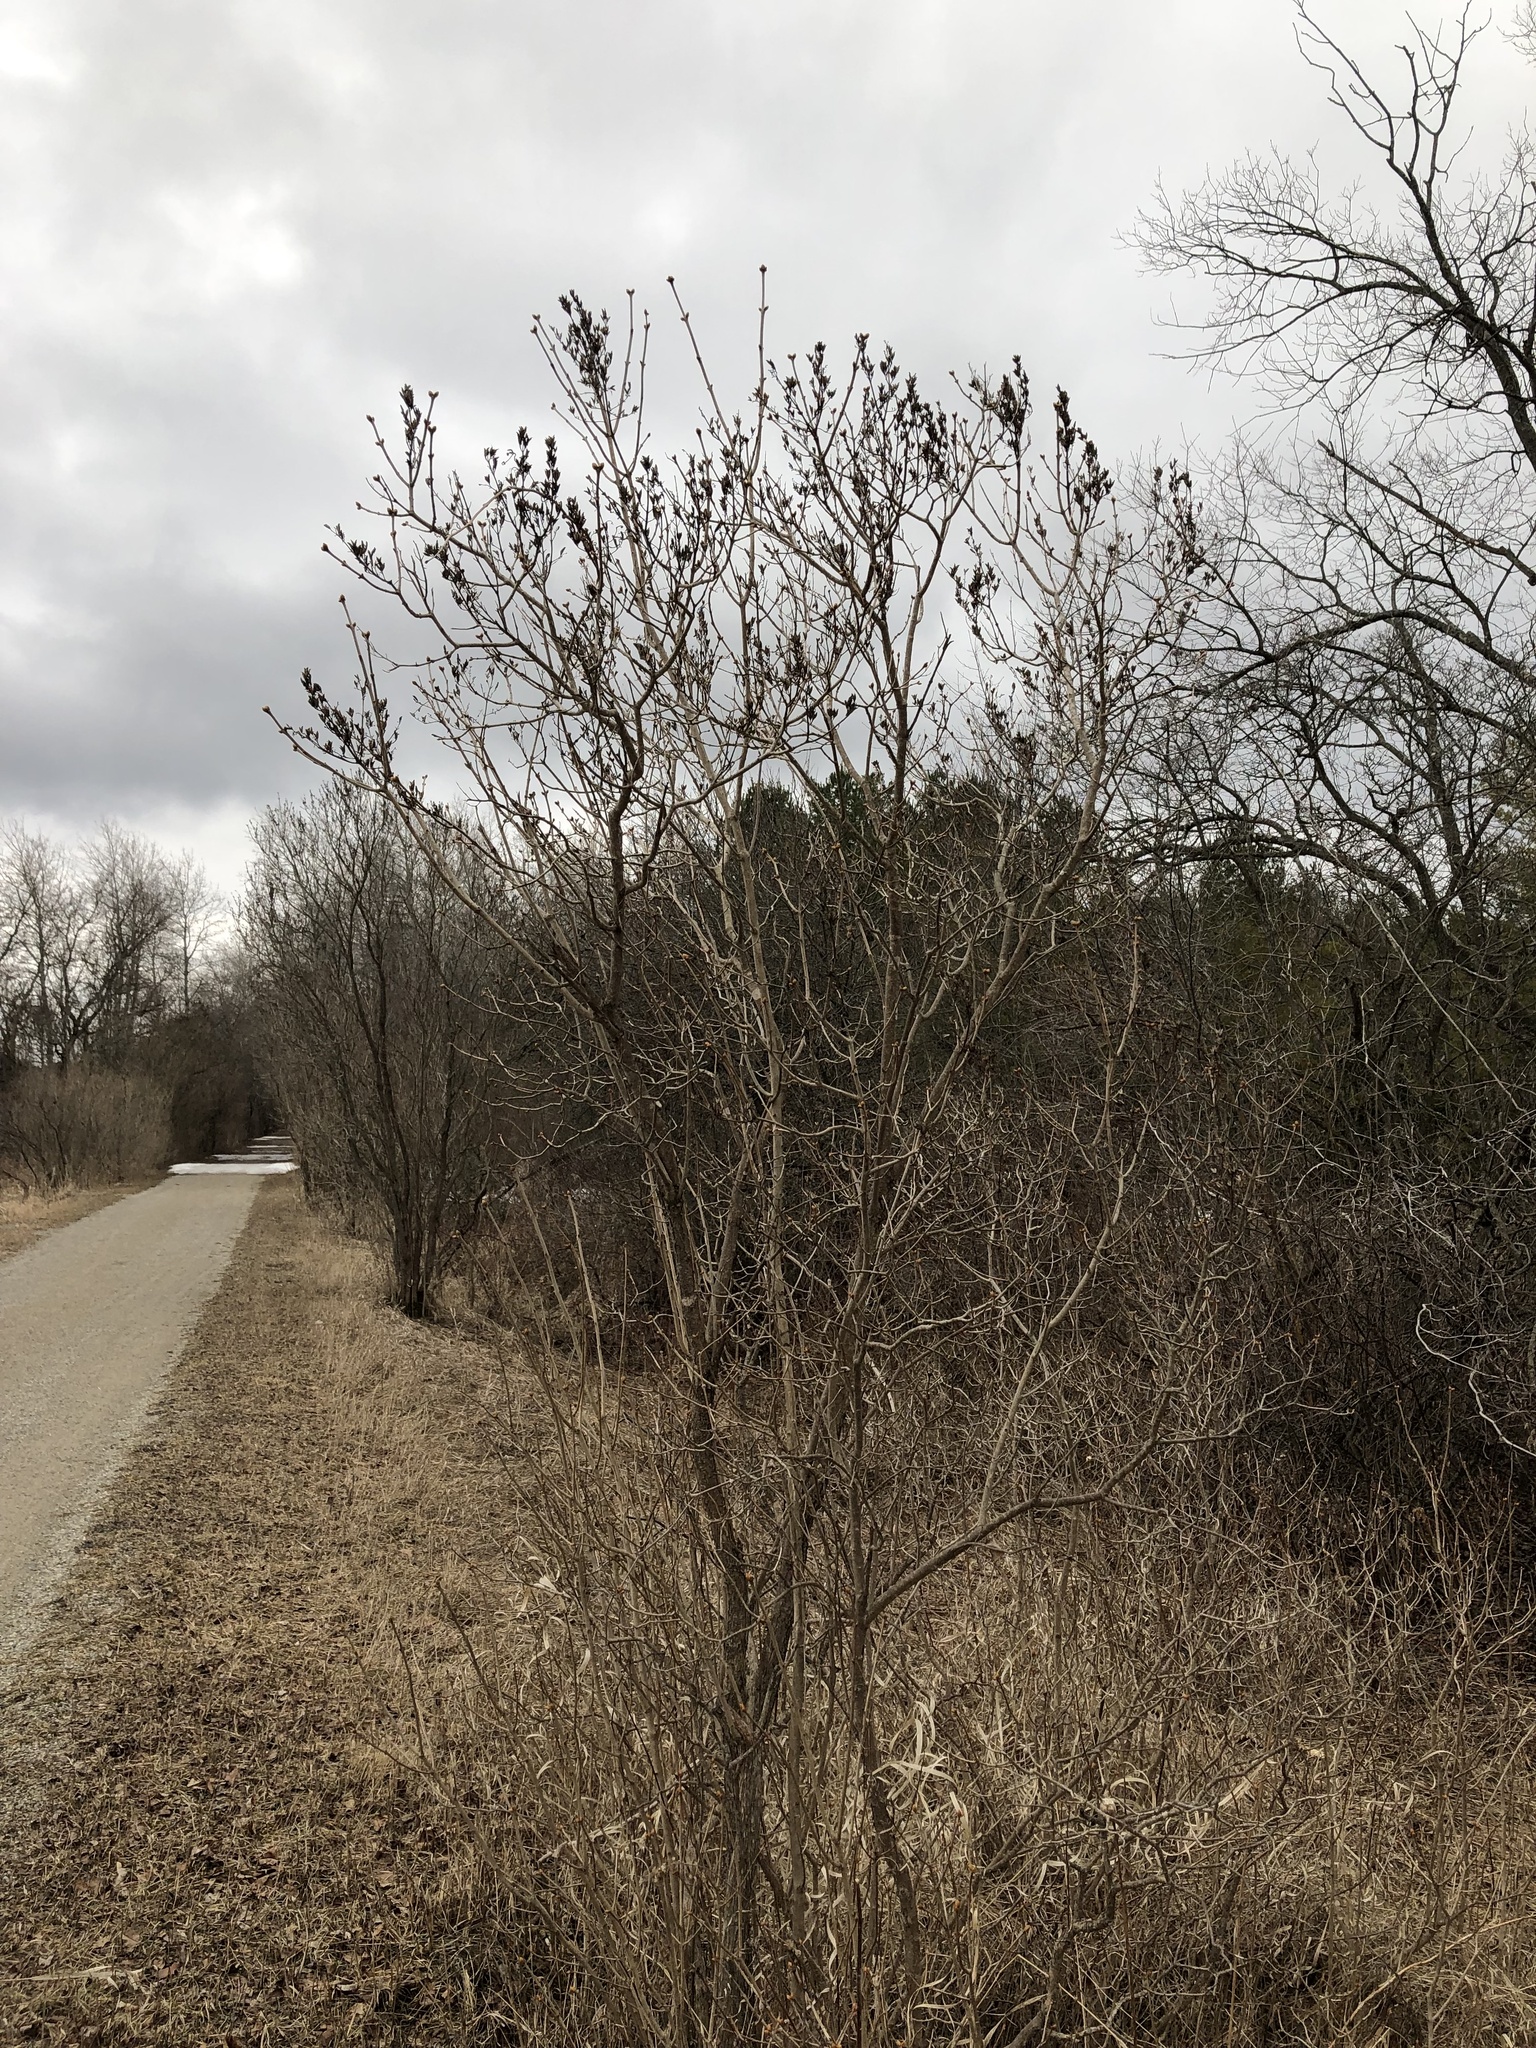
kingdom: Plantae
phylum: Tracheophyta
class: Magnoliopsida
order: Lamiales
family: Oleaceae
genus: Syringa
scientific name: Syringa vulgaris
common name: Common lilac
